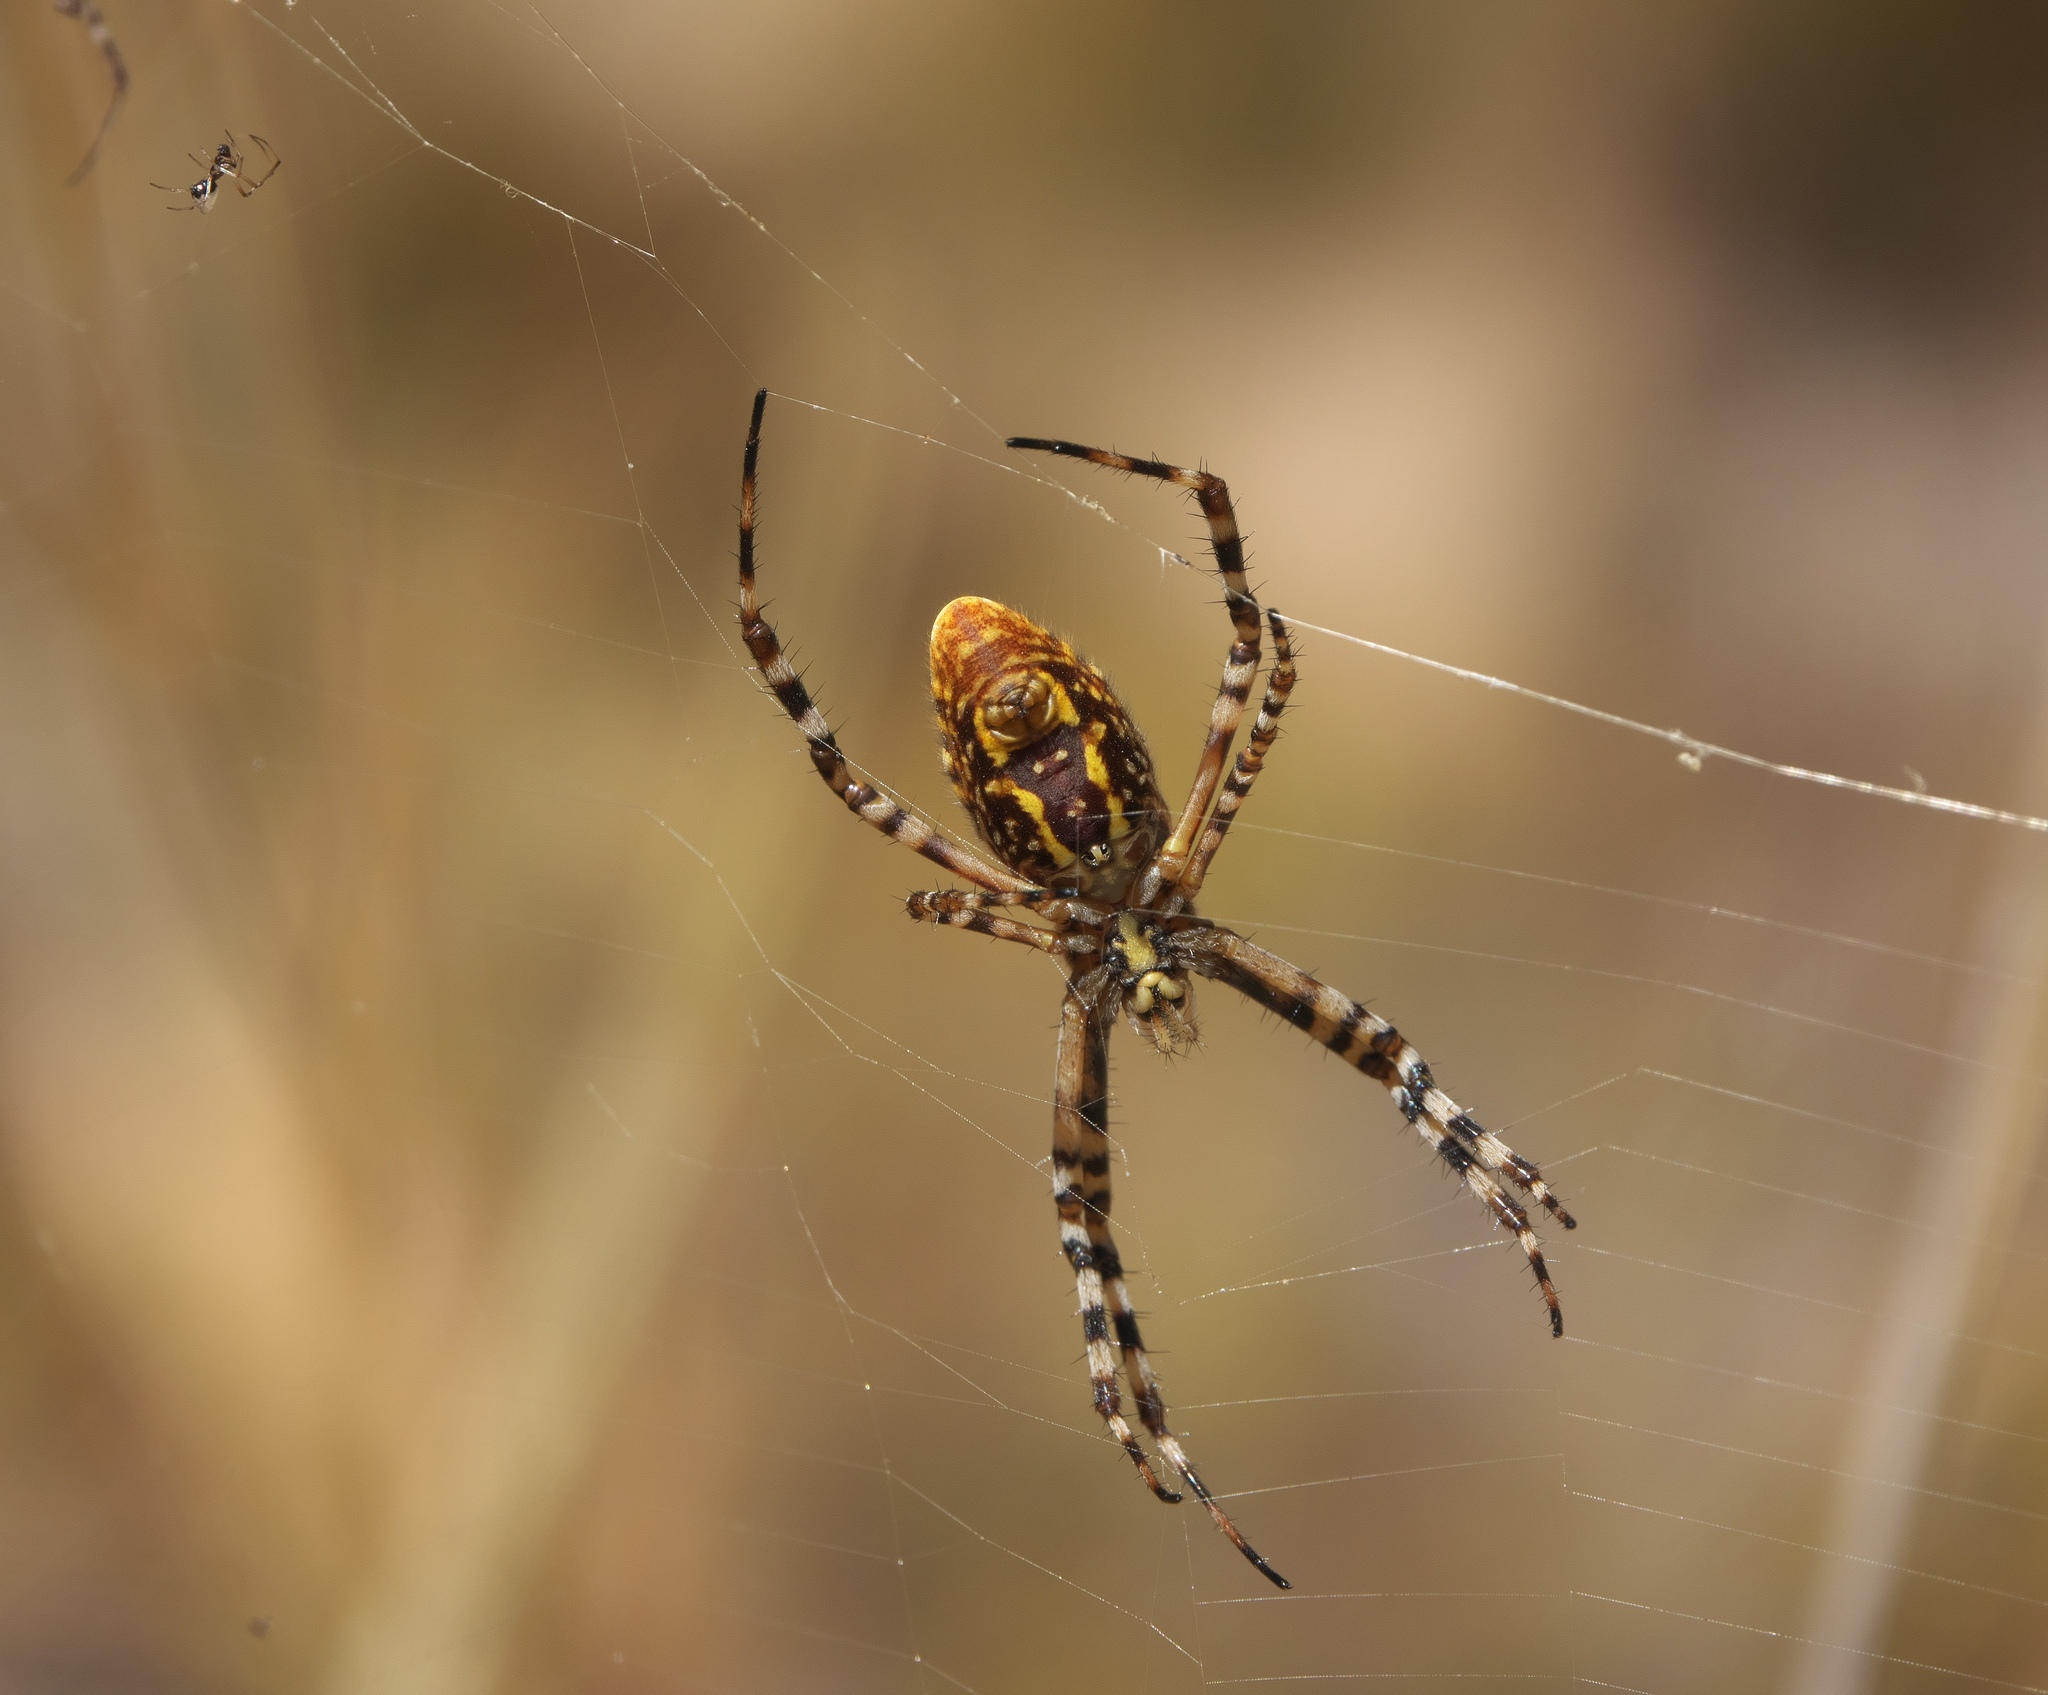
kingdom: Animalia
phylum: Arthropoda
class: Arachnida
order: Araneae
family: Araneidae
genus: Argiope
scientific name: Argiope trifasciata
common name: Banded garden spider
